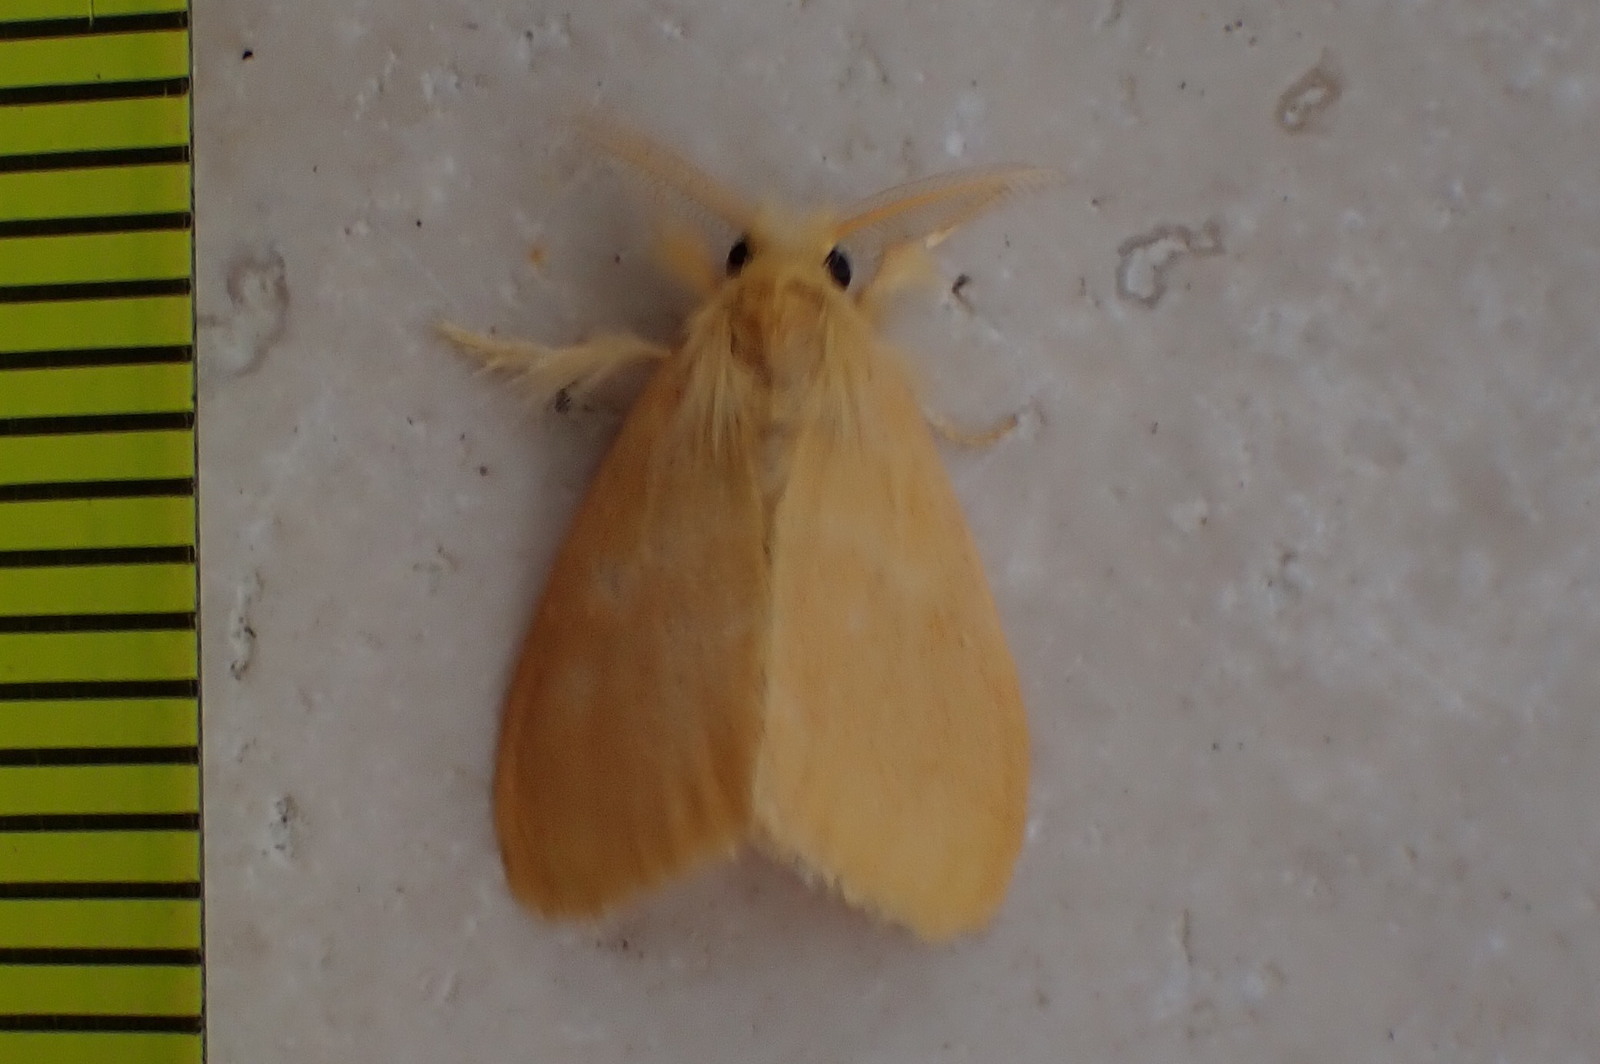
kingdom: Animalia
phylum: Arthropoda
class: Insecta
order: Lepidoptera
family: Erebidae
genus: Euproctis
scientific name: Euproctis lutea
